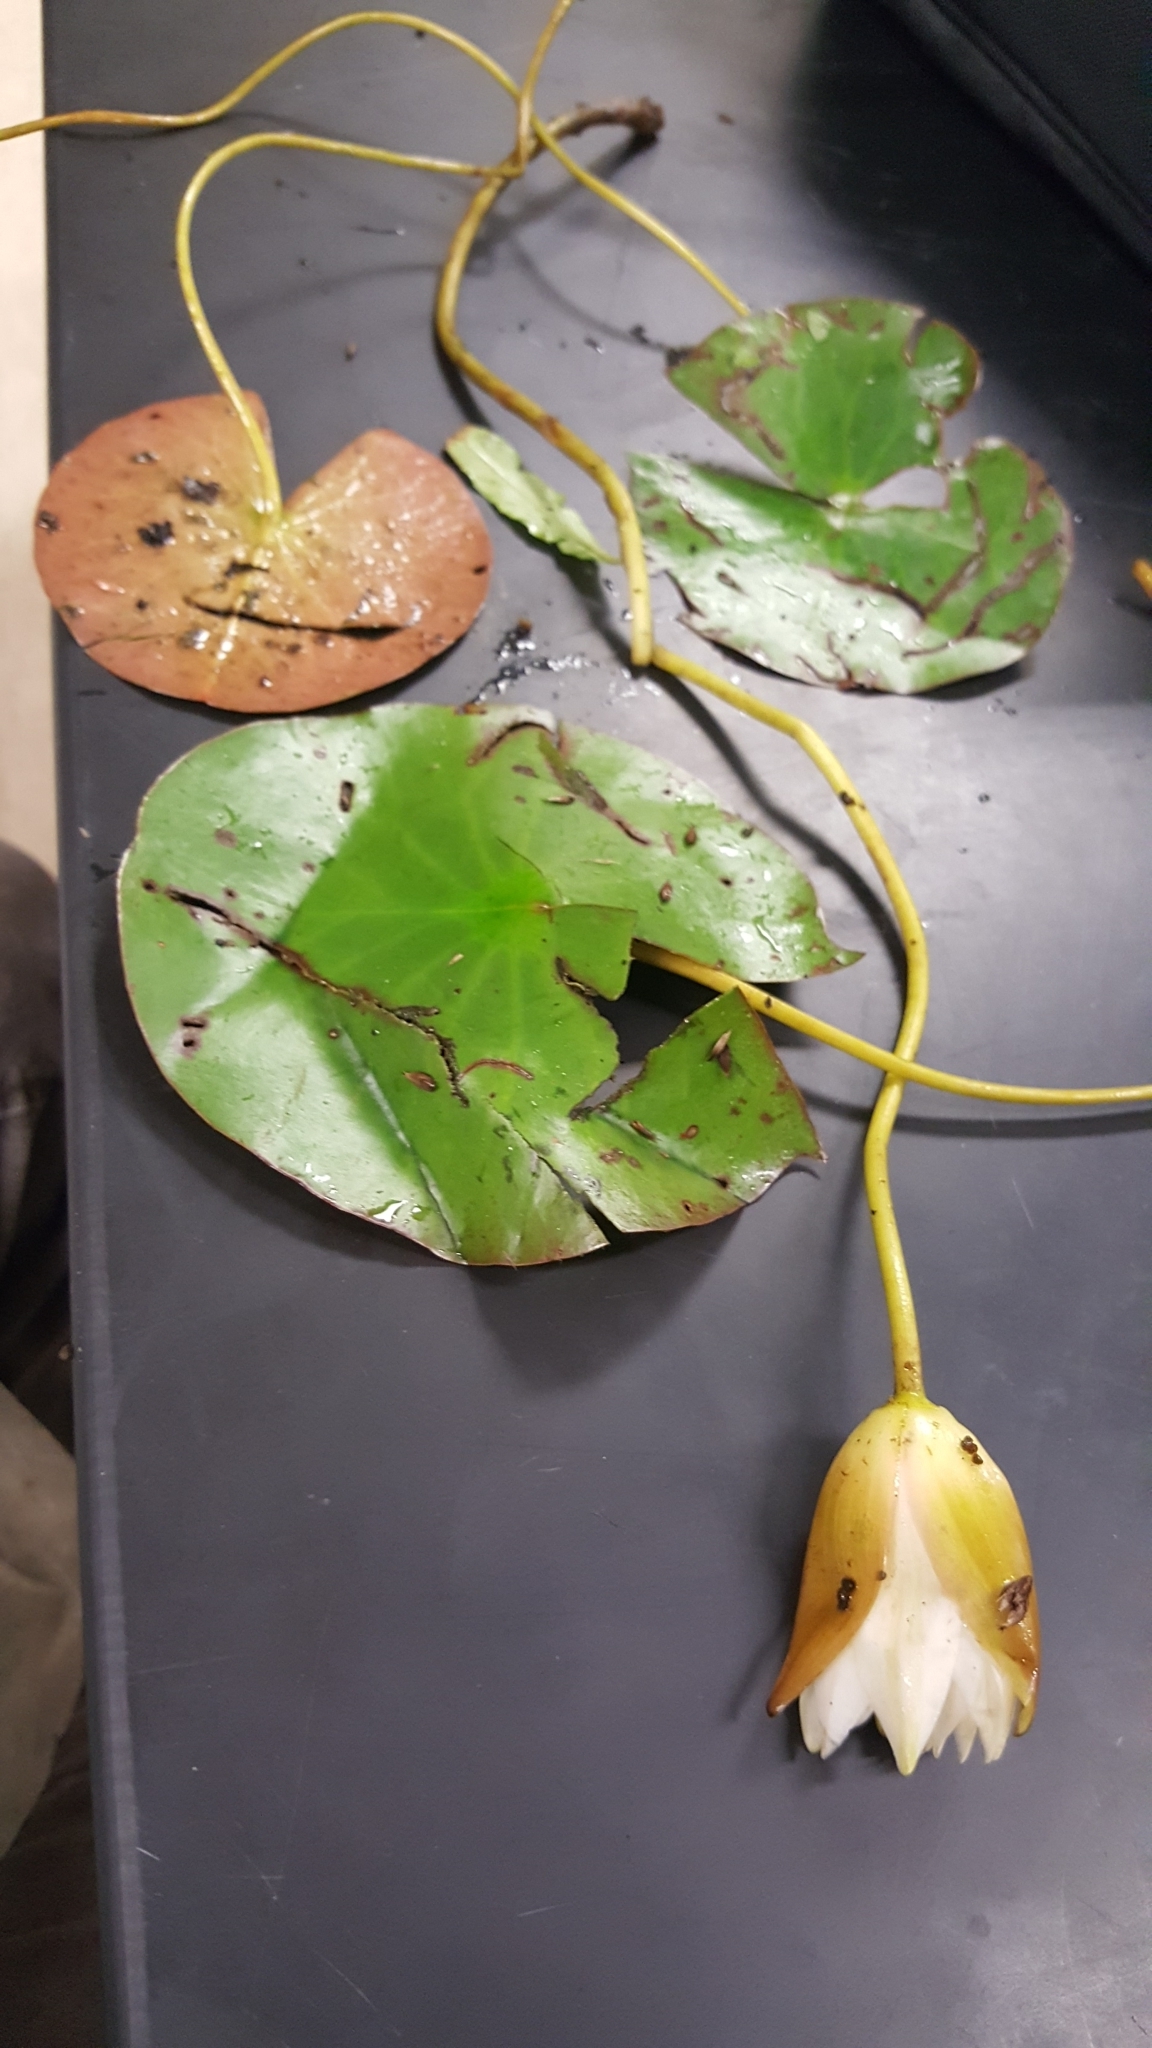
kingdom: Plantae
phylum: Tracheophyta
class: Magnoliopsida
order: Nymphaeales
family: Nymphaeaceae
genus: Nymphaea
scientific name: Nymphaea odorata
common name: Fragrant water-lily
